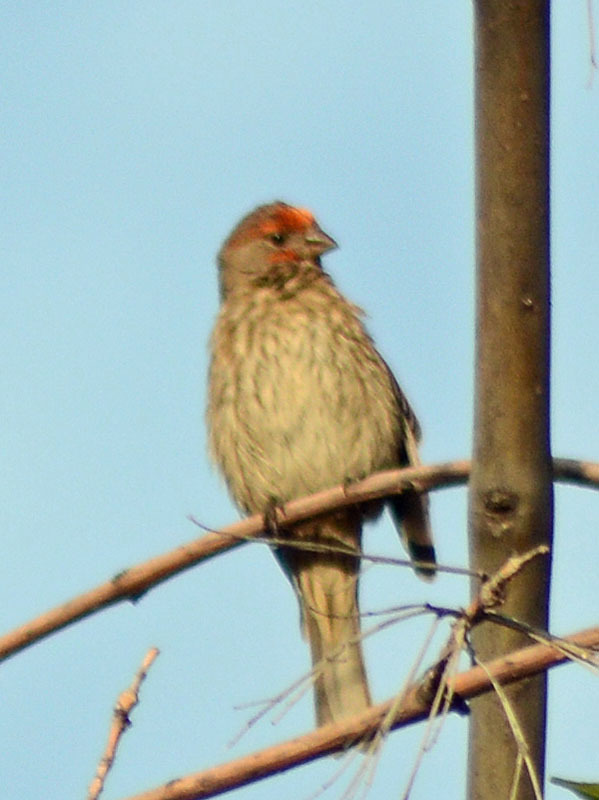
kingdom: Animalia
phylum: Chordata
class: Aves
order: Passeriformes
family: Fringillidae
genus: Haemorhous
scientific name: Haemorhous mexicanus
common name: House finch
